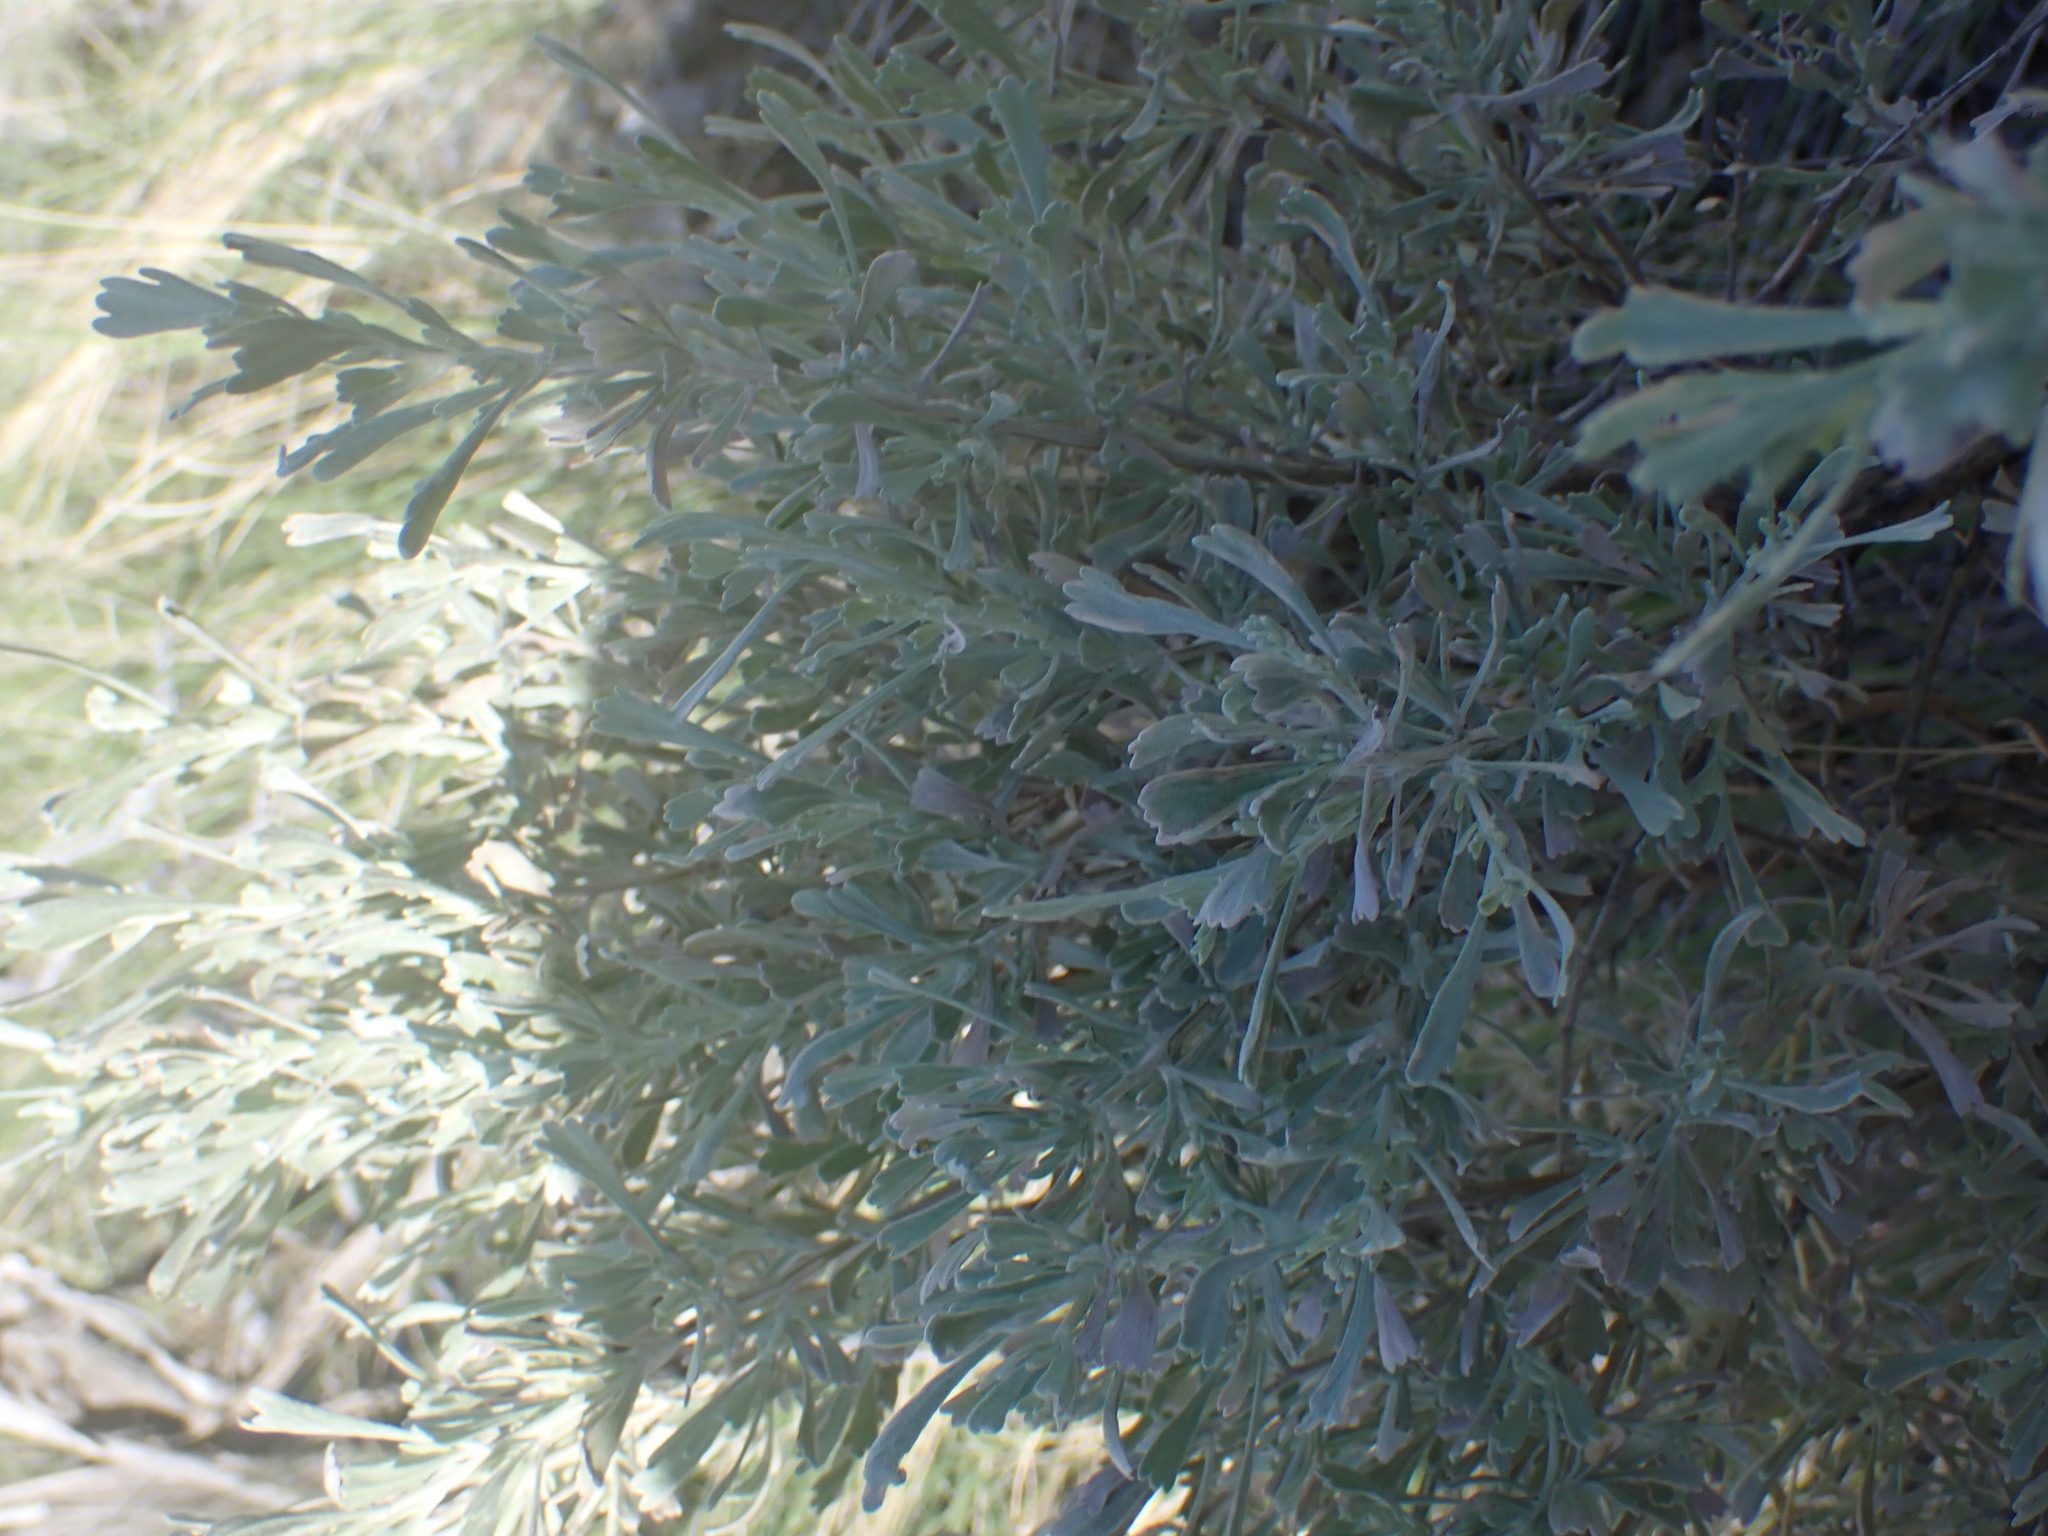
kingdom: Plantae
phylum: Tracheophyta
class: Magnoliopsida
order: Asterales
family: Asteraceae
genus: Artemisia
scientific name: Artemisia tridentata
